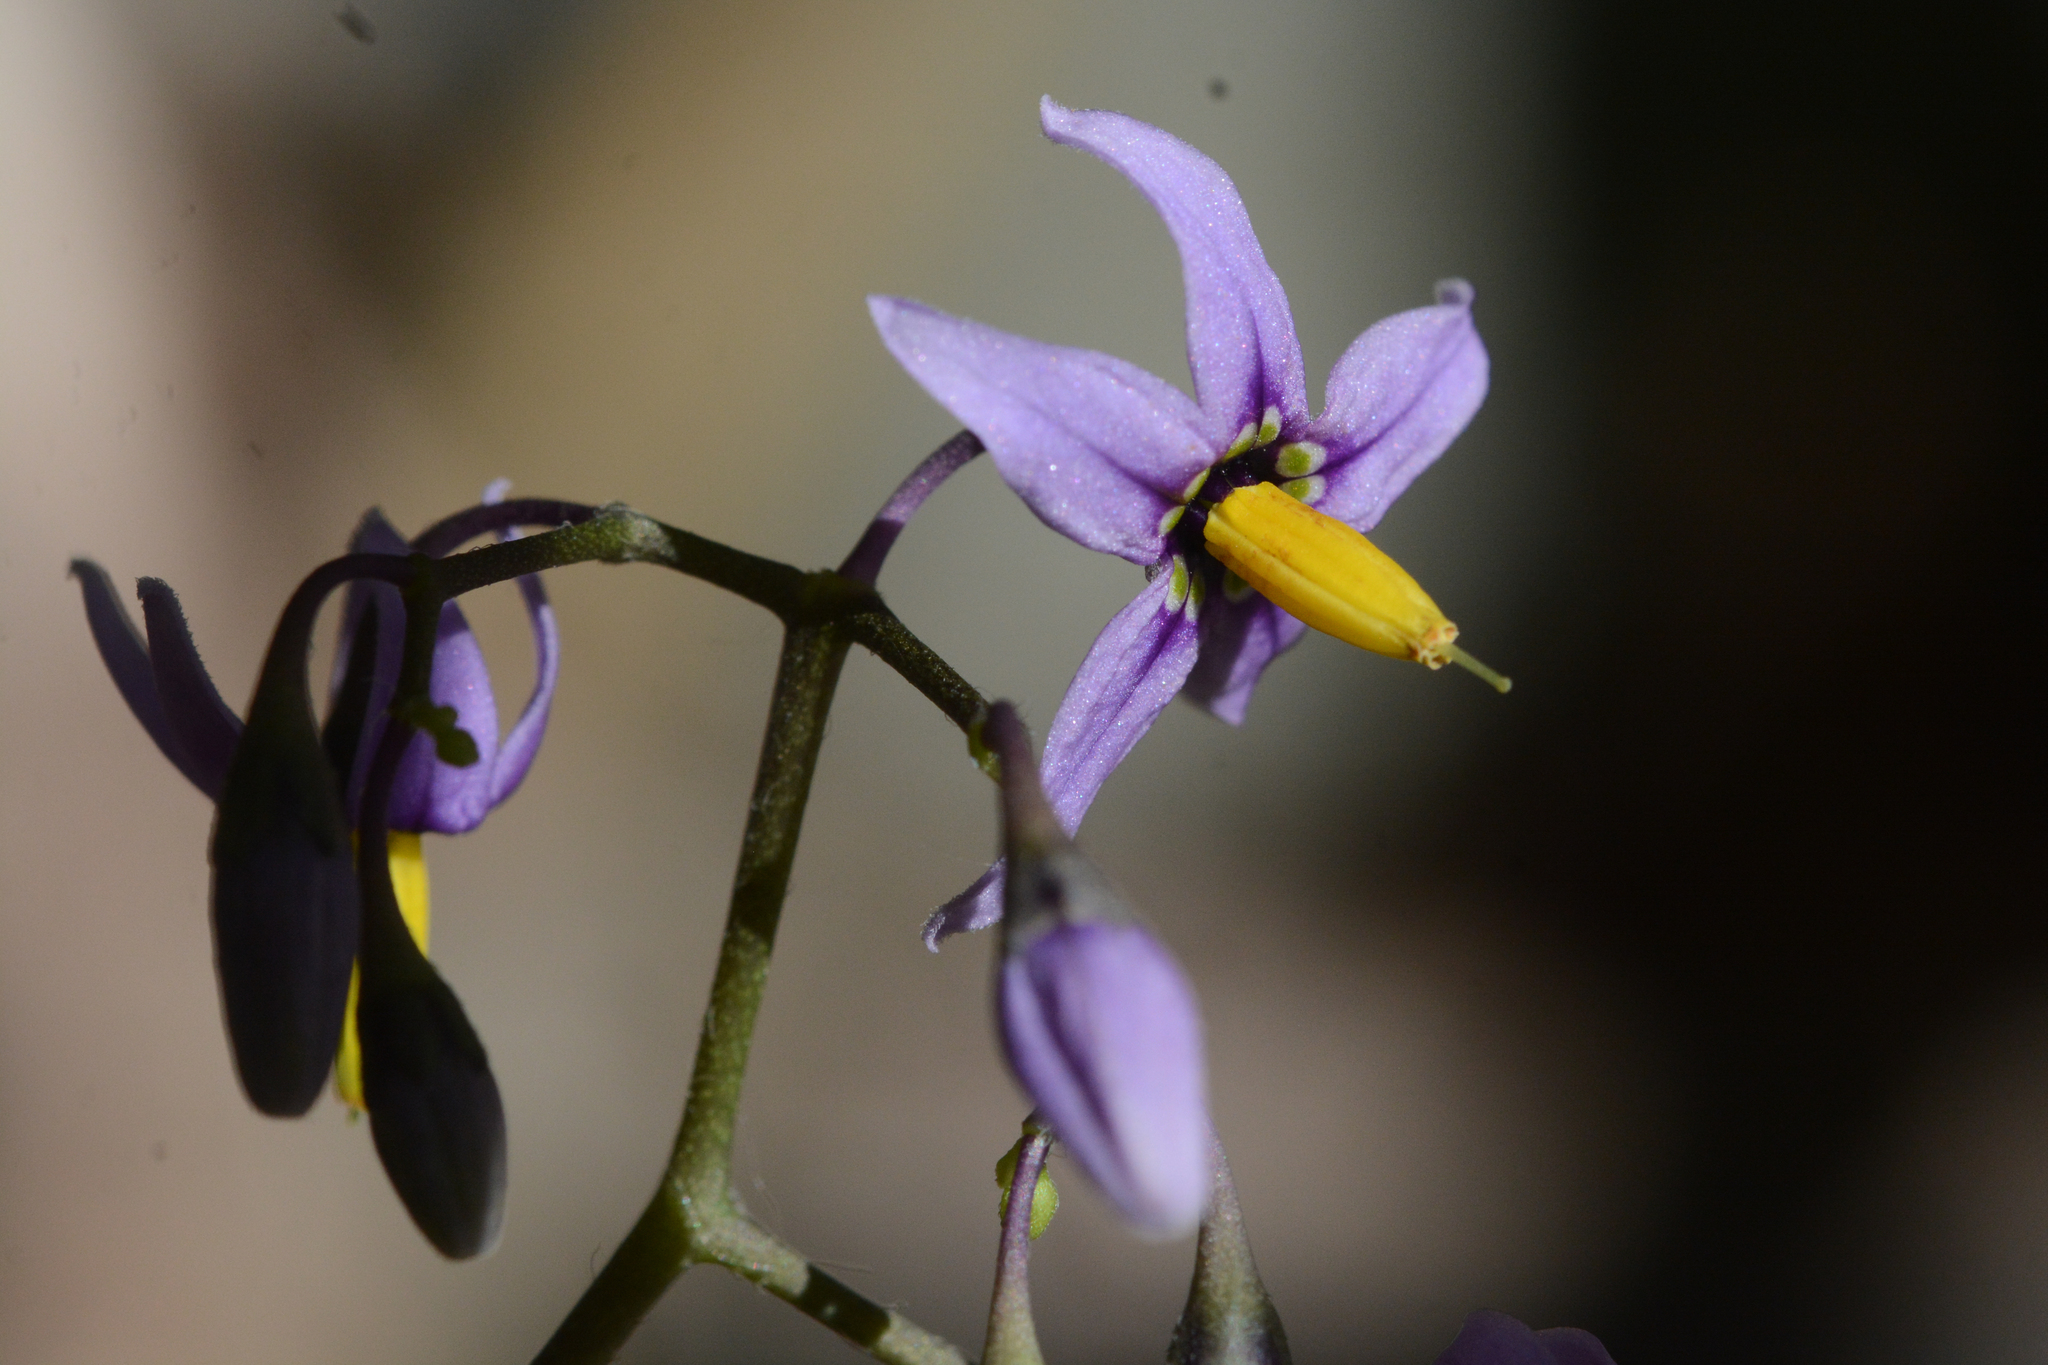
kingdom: Plantae
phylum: Tracheophyta
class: Magnoliopsida
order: Solanales
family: Solanaceae
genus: Solanum
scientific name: Solanum dulcamara
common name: Climbing nightshade
